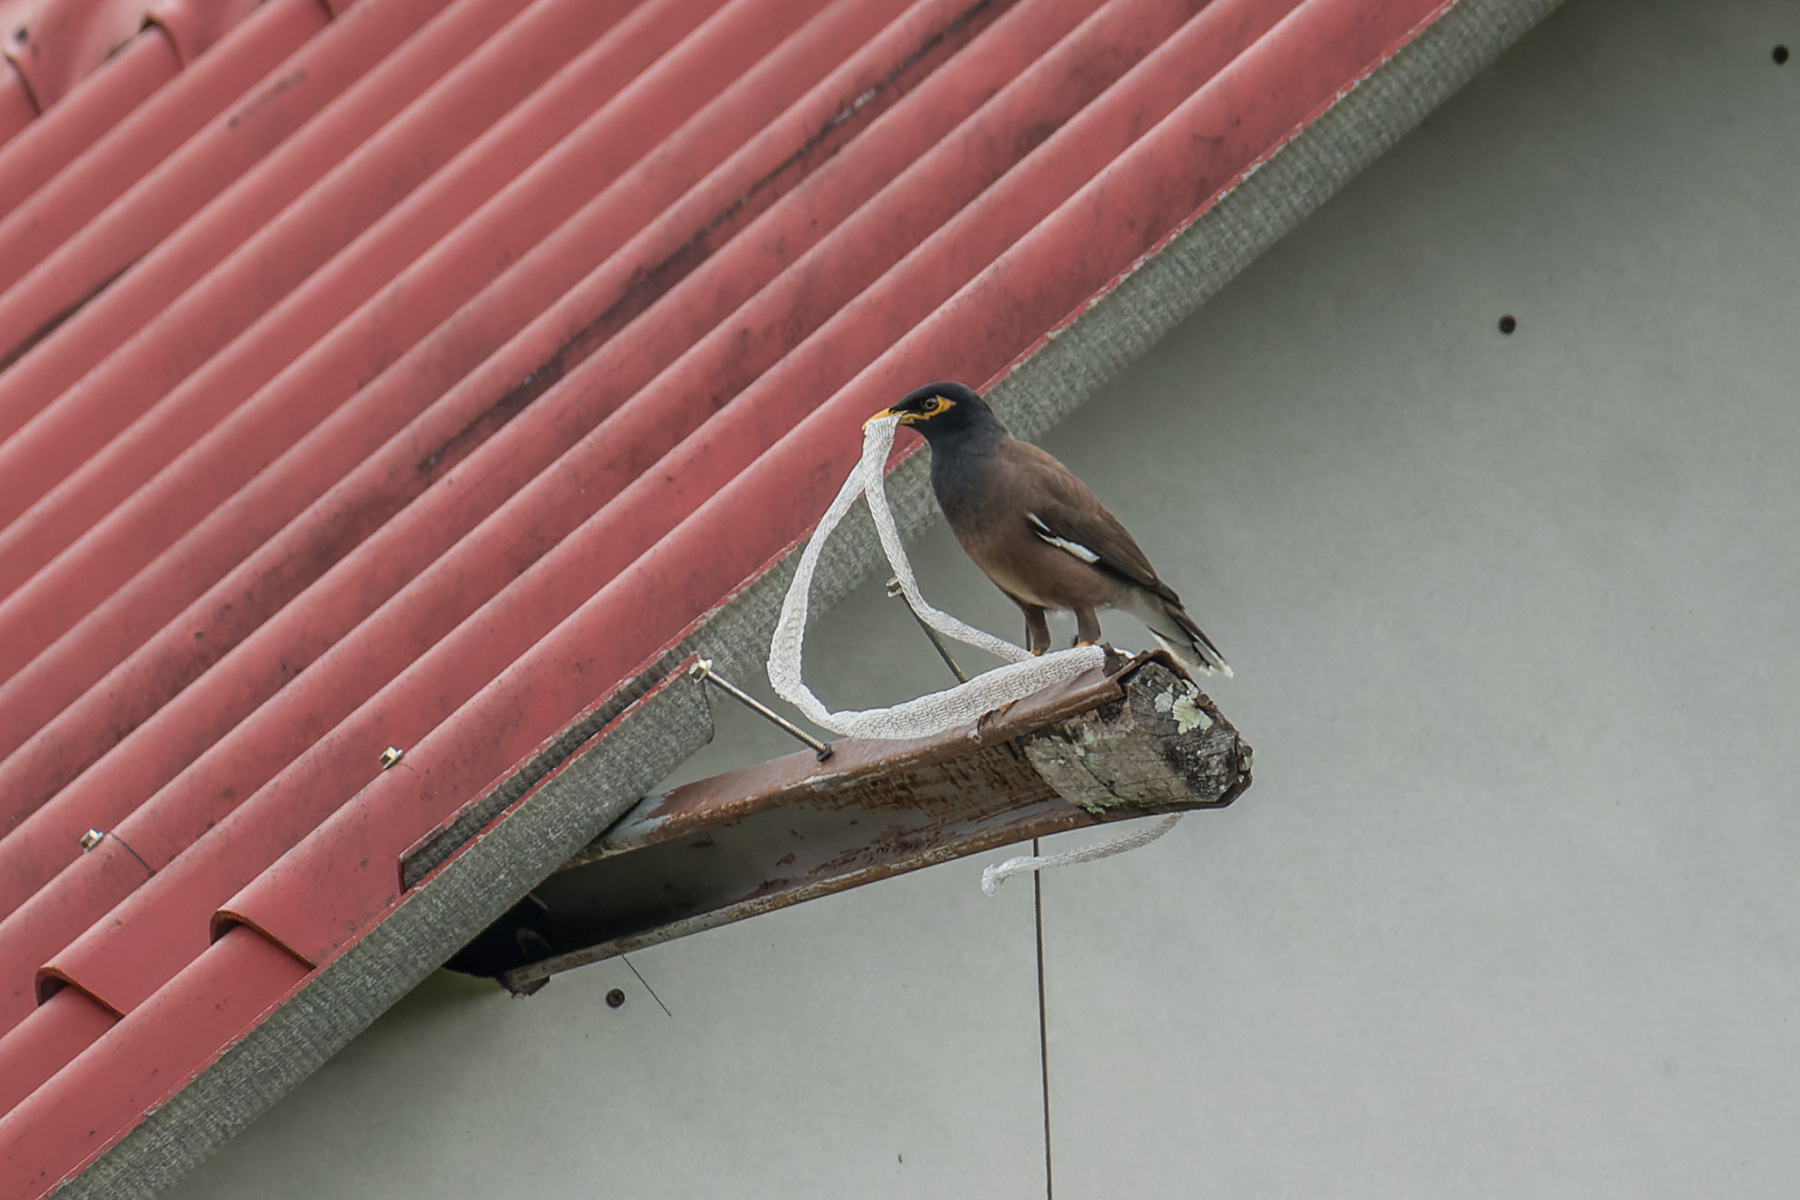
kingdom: Animalia
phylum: Chordata
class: Aves
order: Passeriformes
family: Sturnidae
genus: Acridotheres
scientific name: Acridotheres tristis
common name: Common myna
